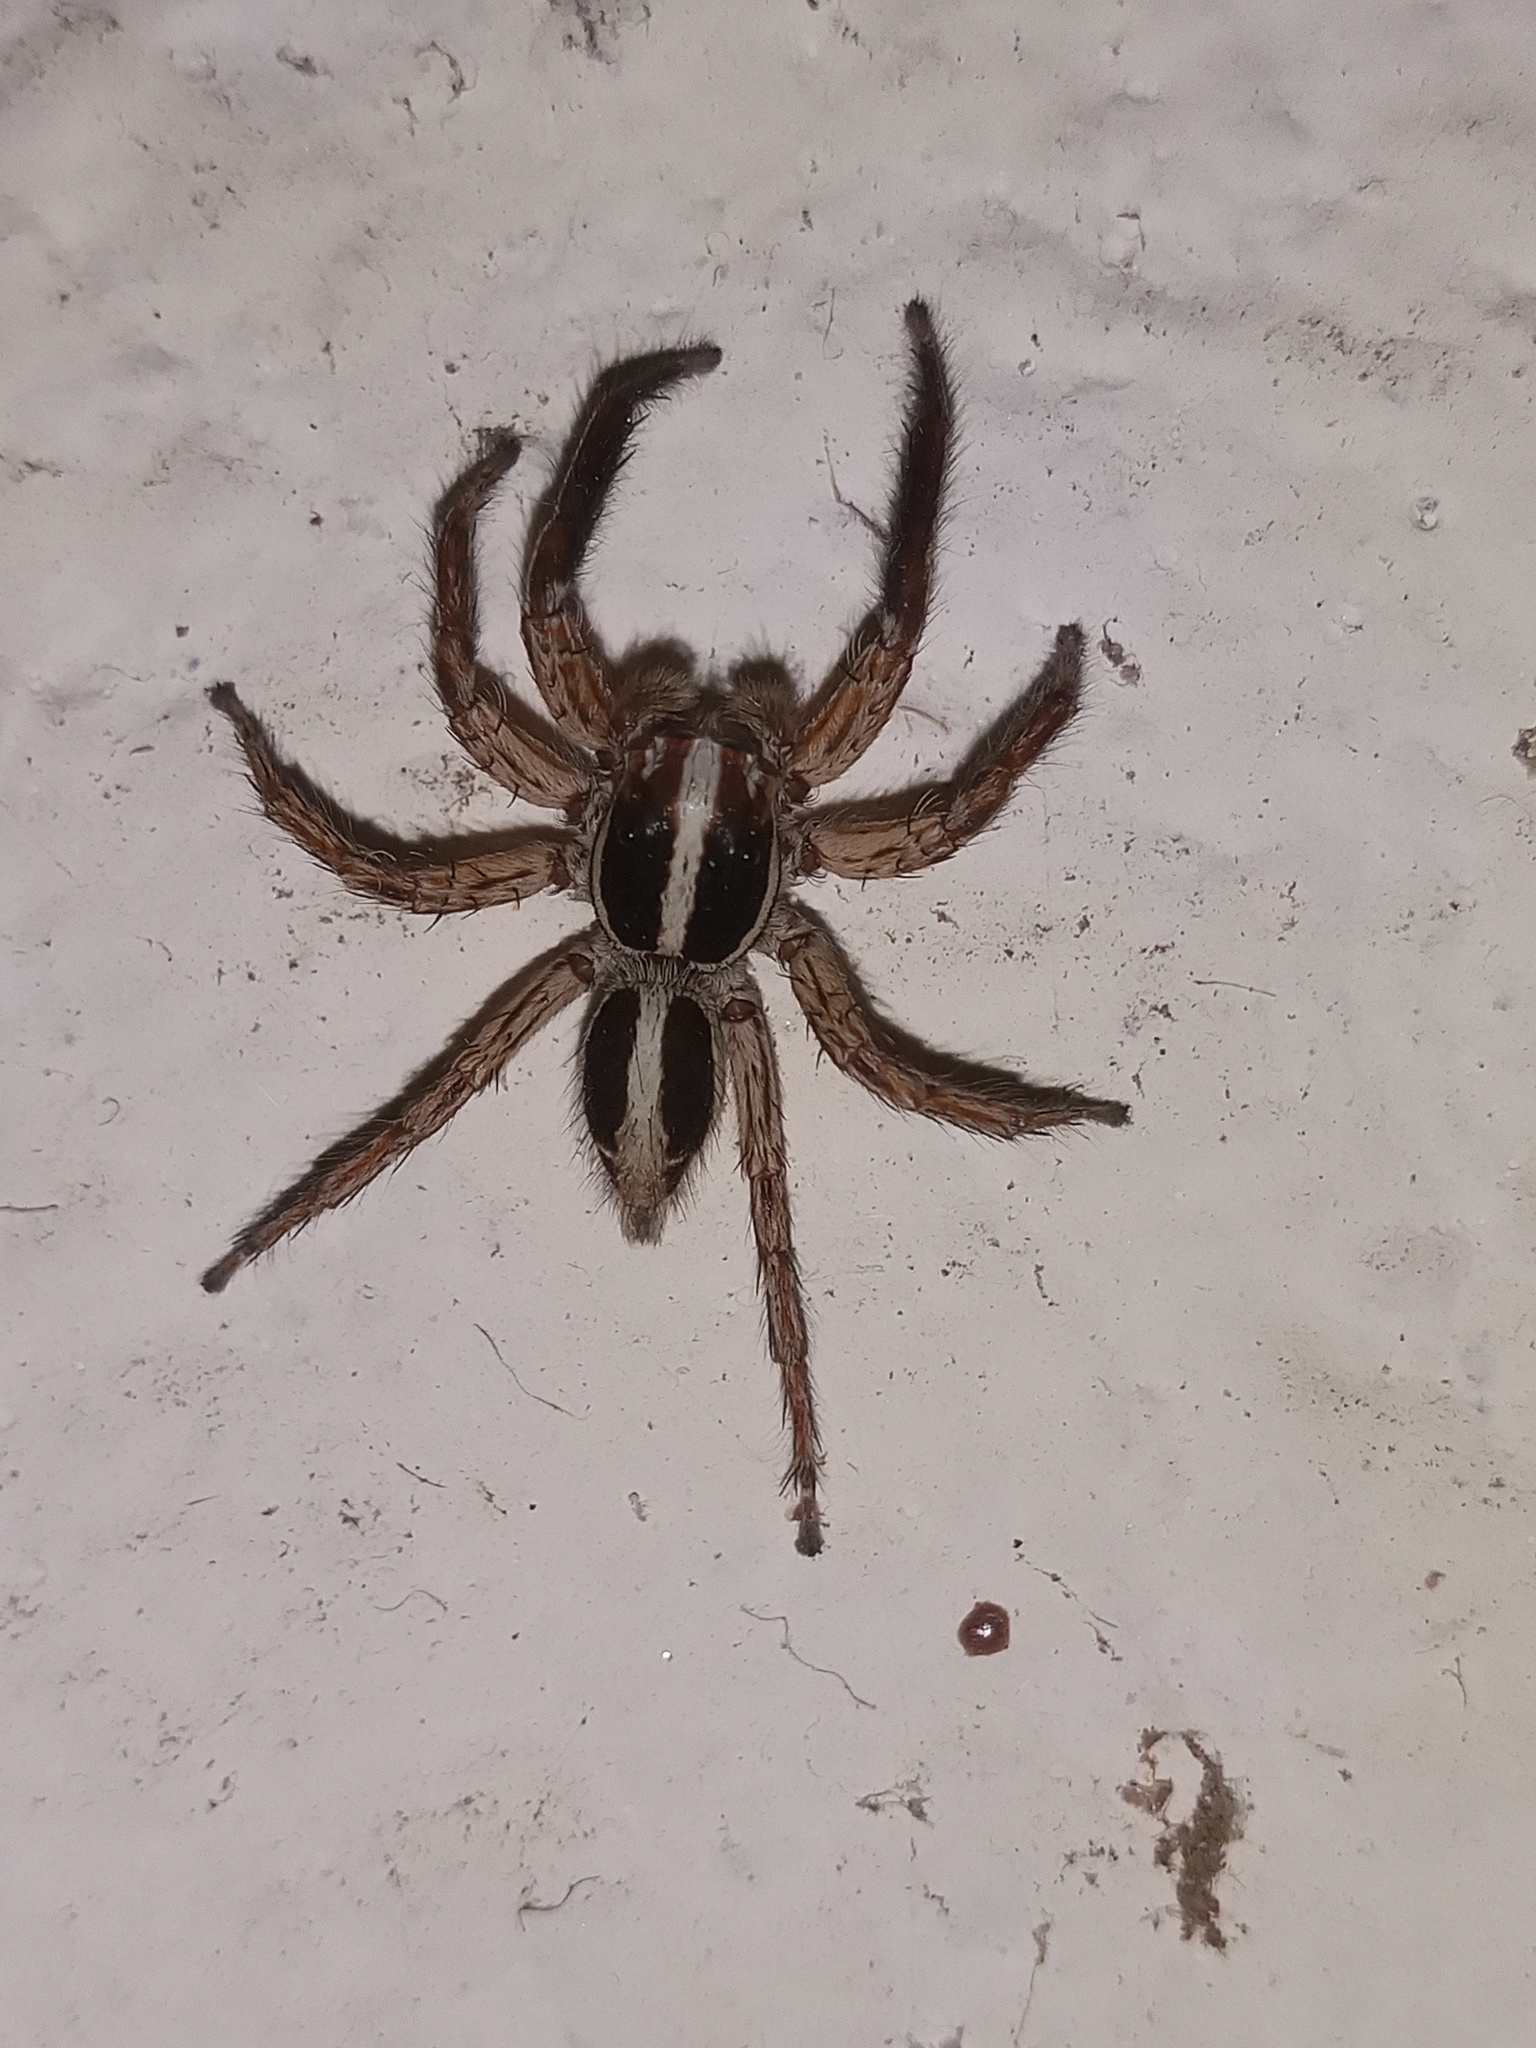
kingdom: Animalia
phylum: Arthropoda
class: Arachnida
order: Araneae
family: Salticidae
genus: Plexippus
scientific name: Plexippus paykulli
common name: Pantropical jumper
